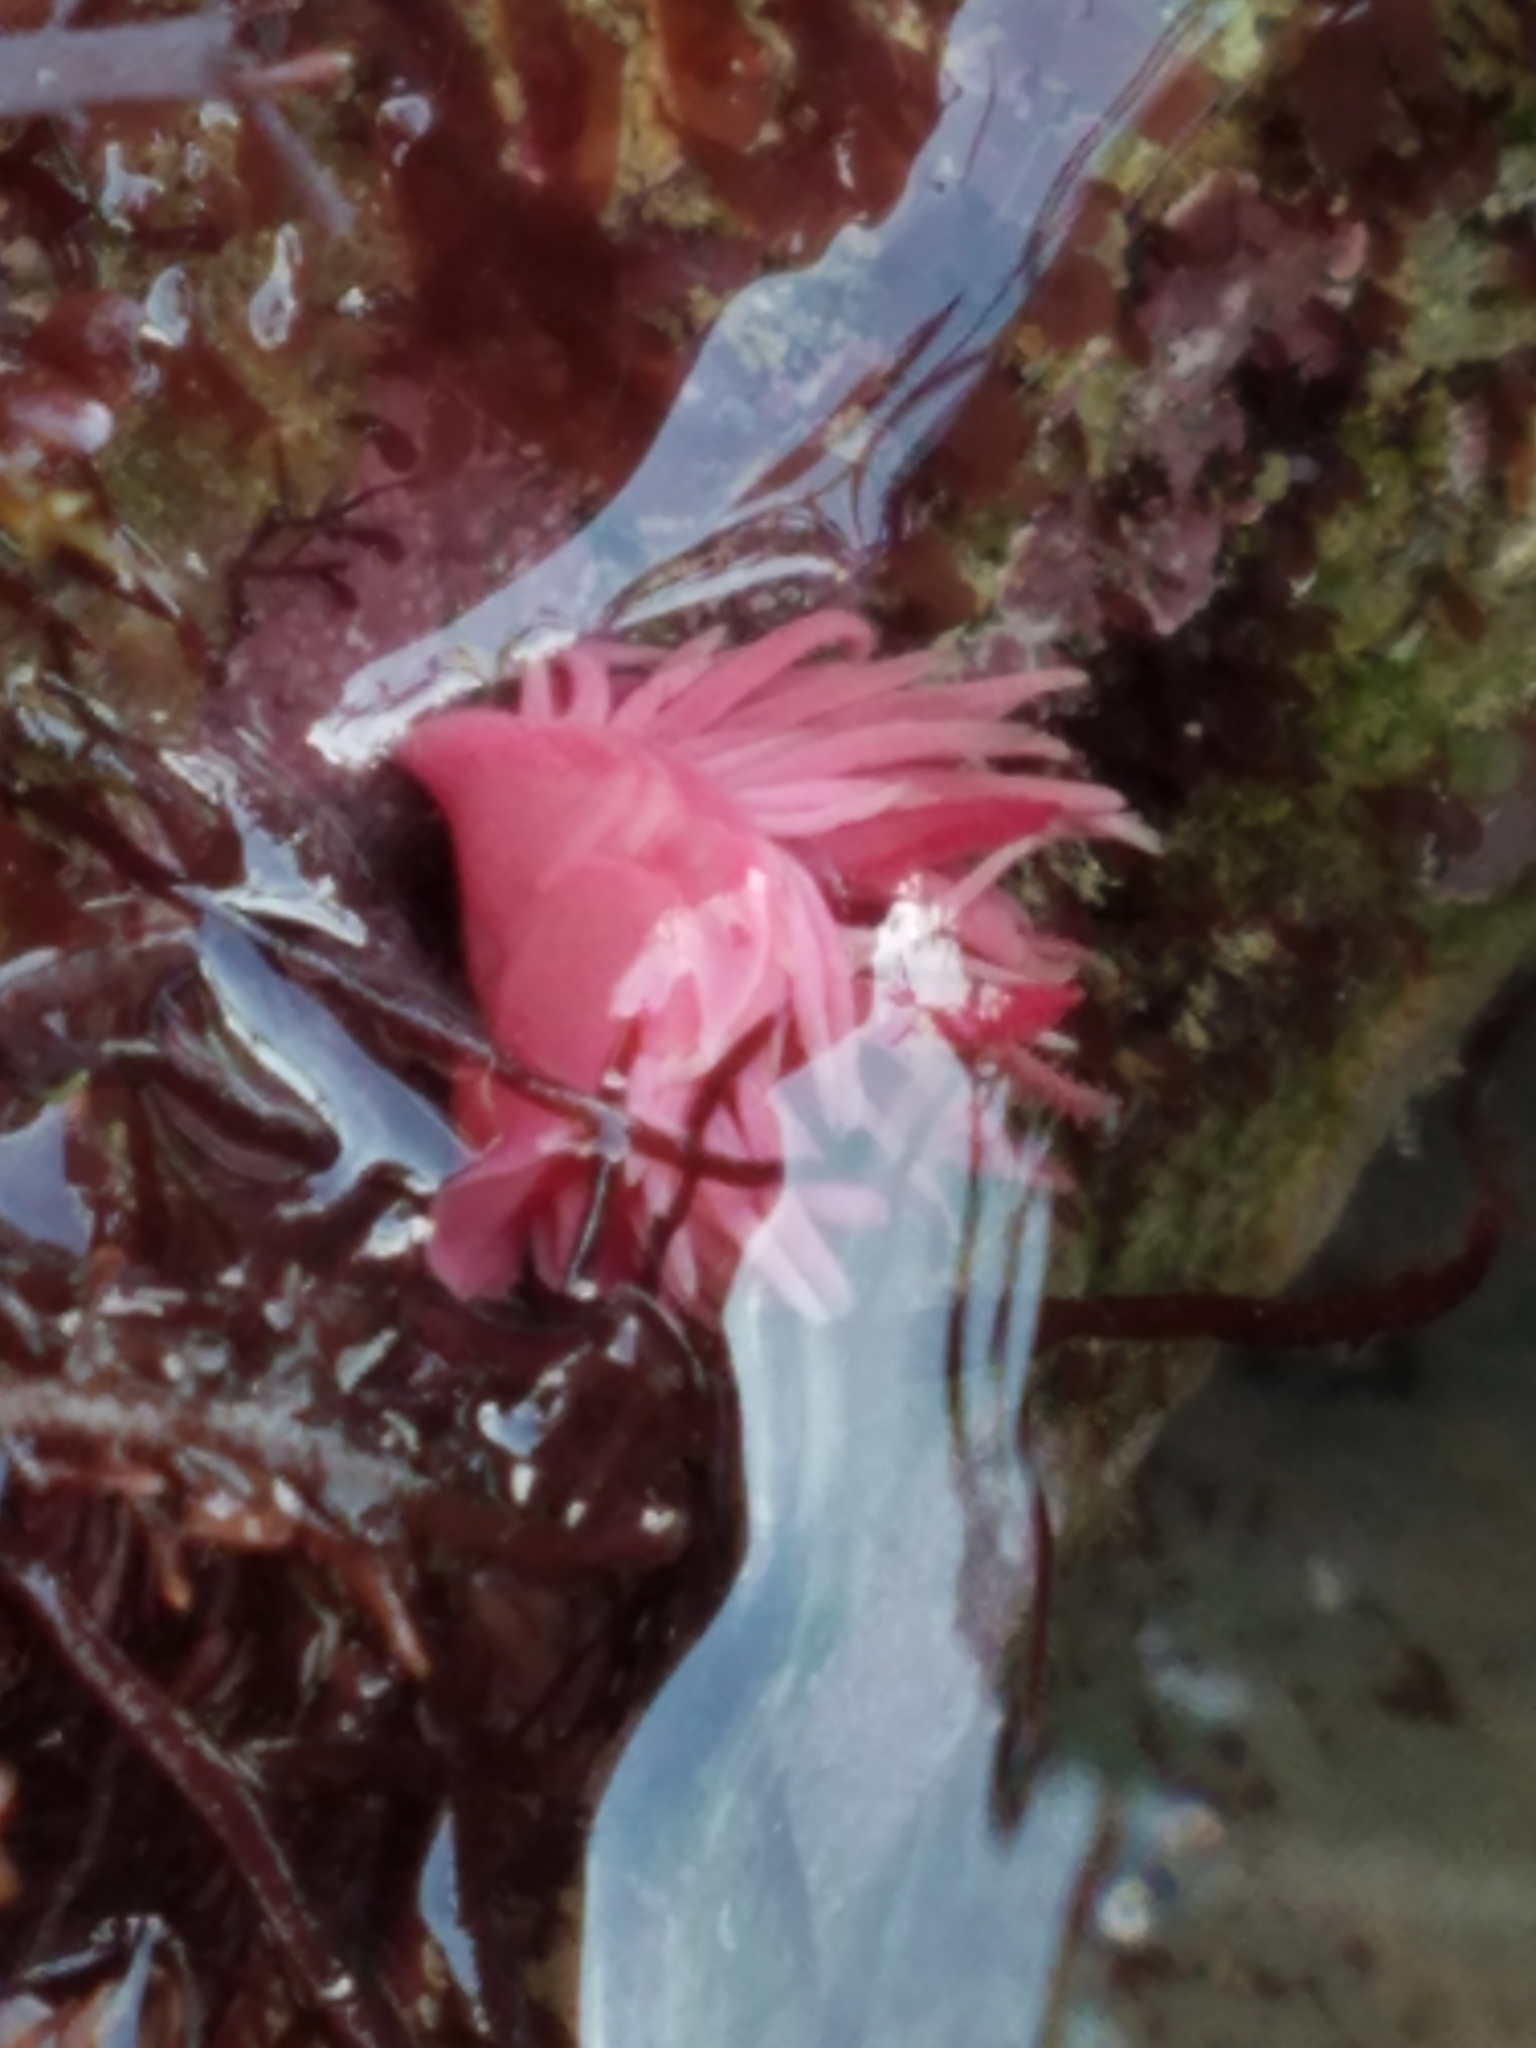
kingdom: Animalia
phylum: Mollusca
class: Gastropoda
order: Nudibranchia
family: Goniodorididae
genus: Okenia
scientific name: Okenia
